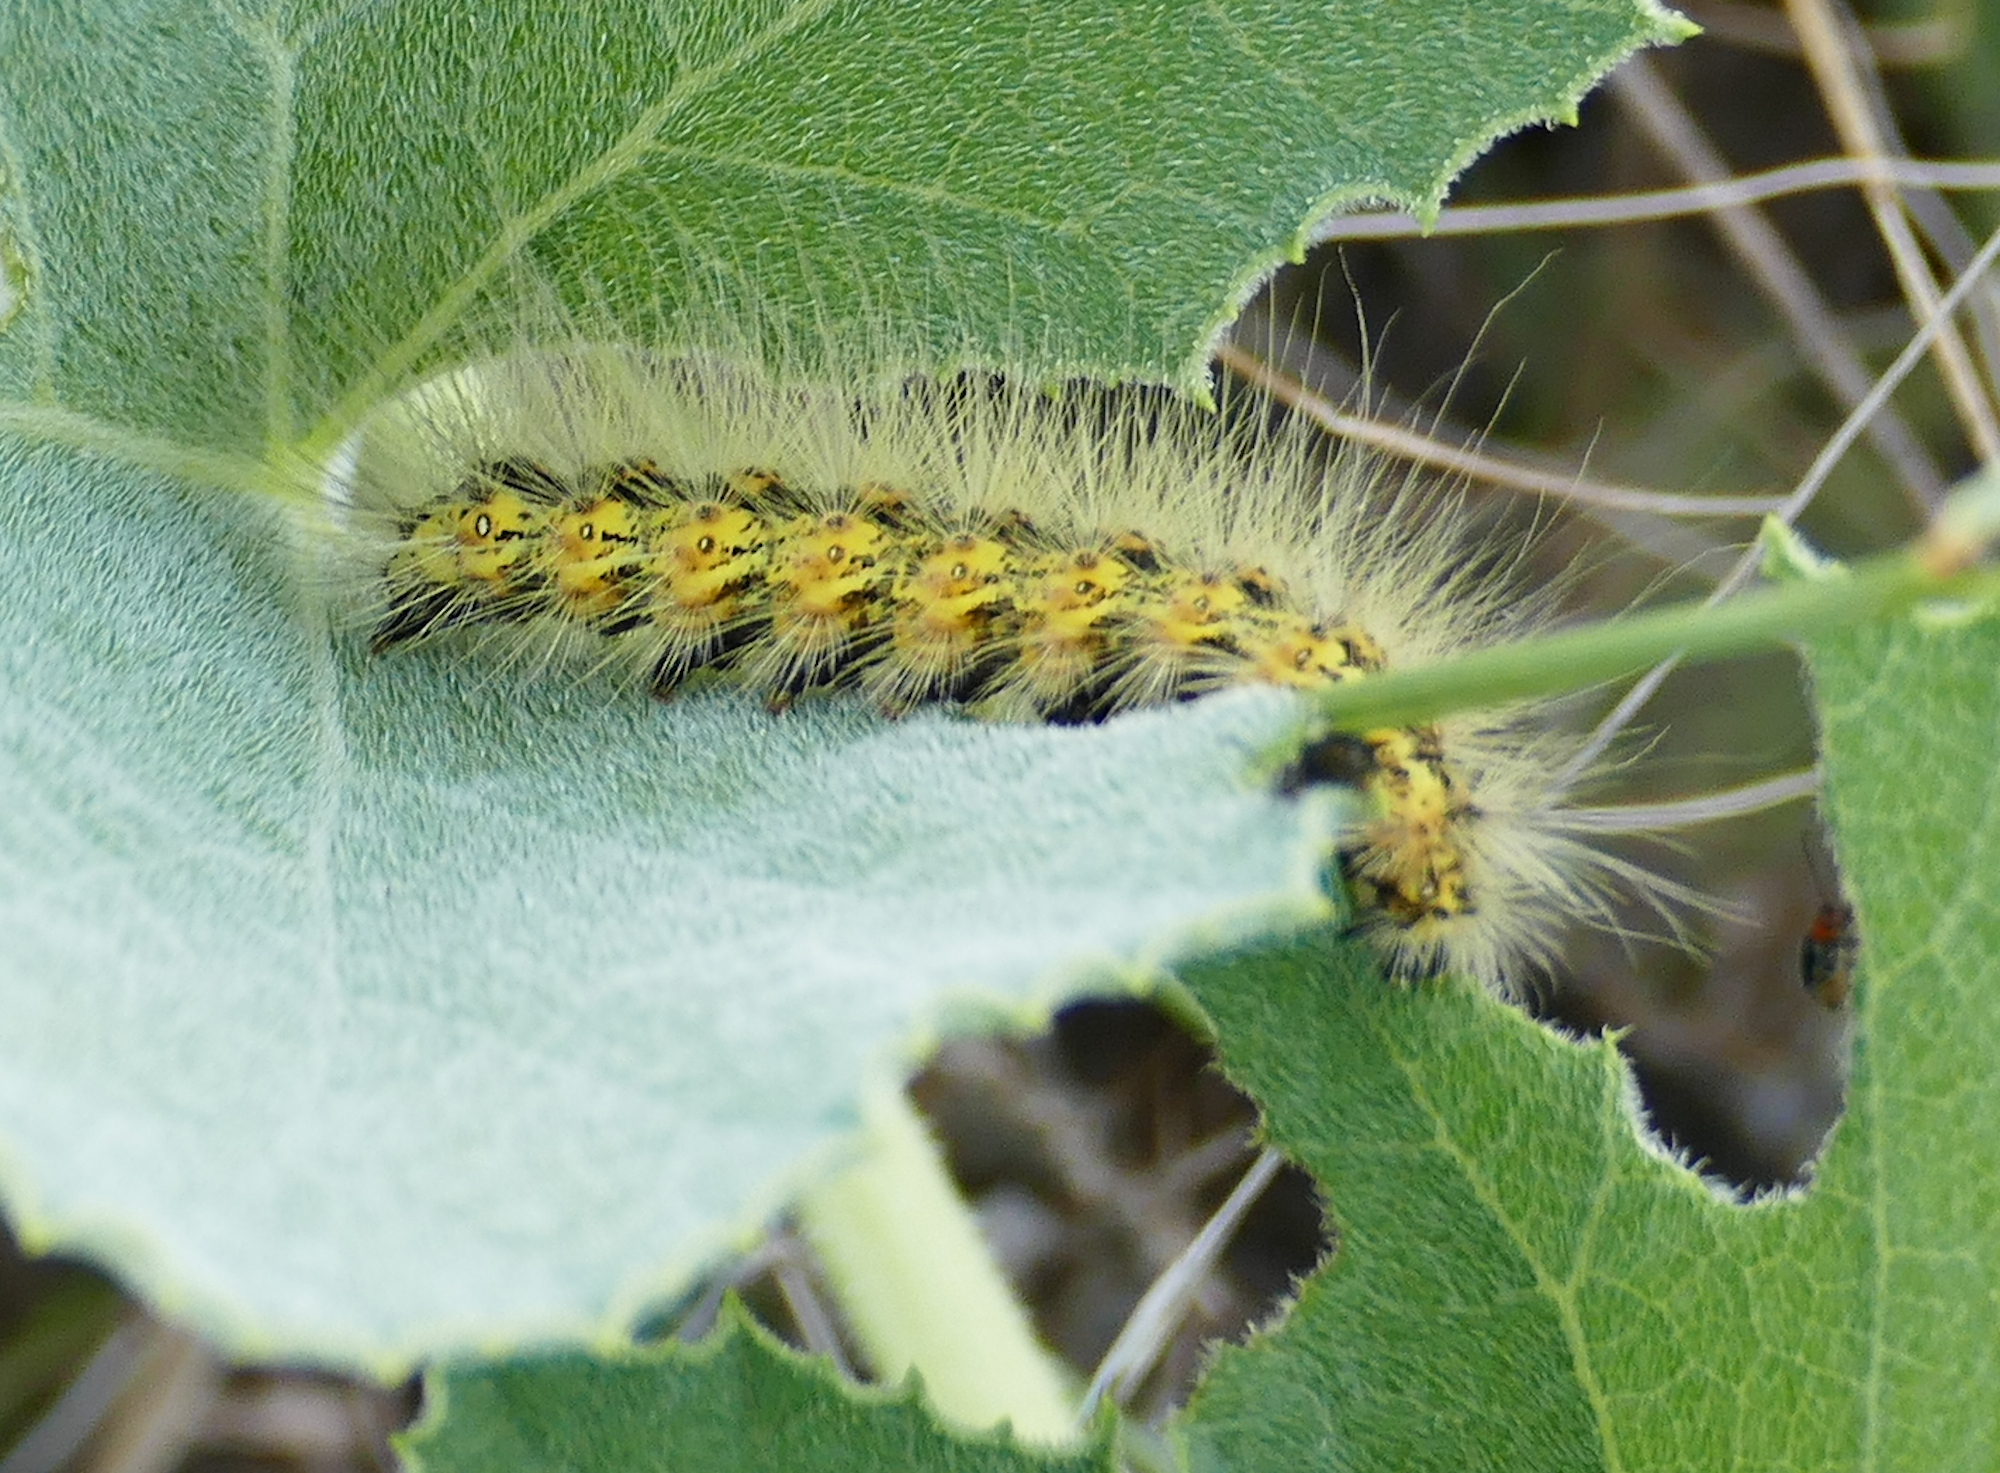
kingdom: Animalia
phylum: Arthropoda
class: Insecta
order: Lepidoptera
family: Erebidae
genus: Estigmene
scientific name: Estigmene
